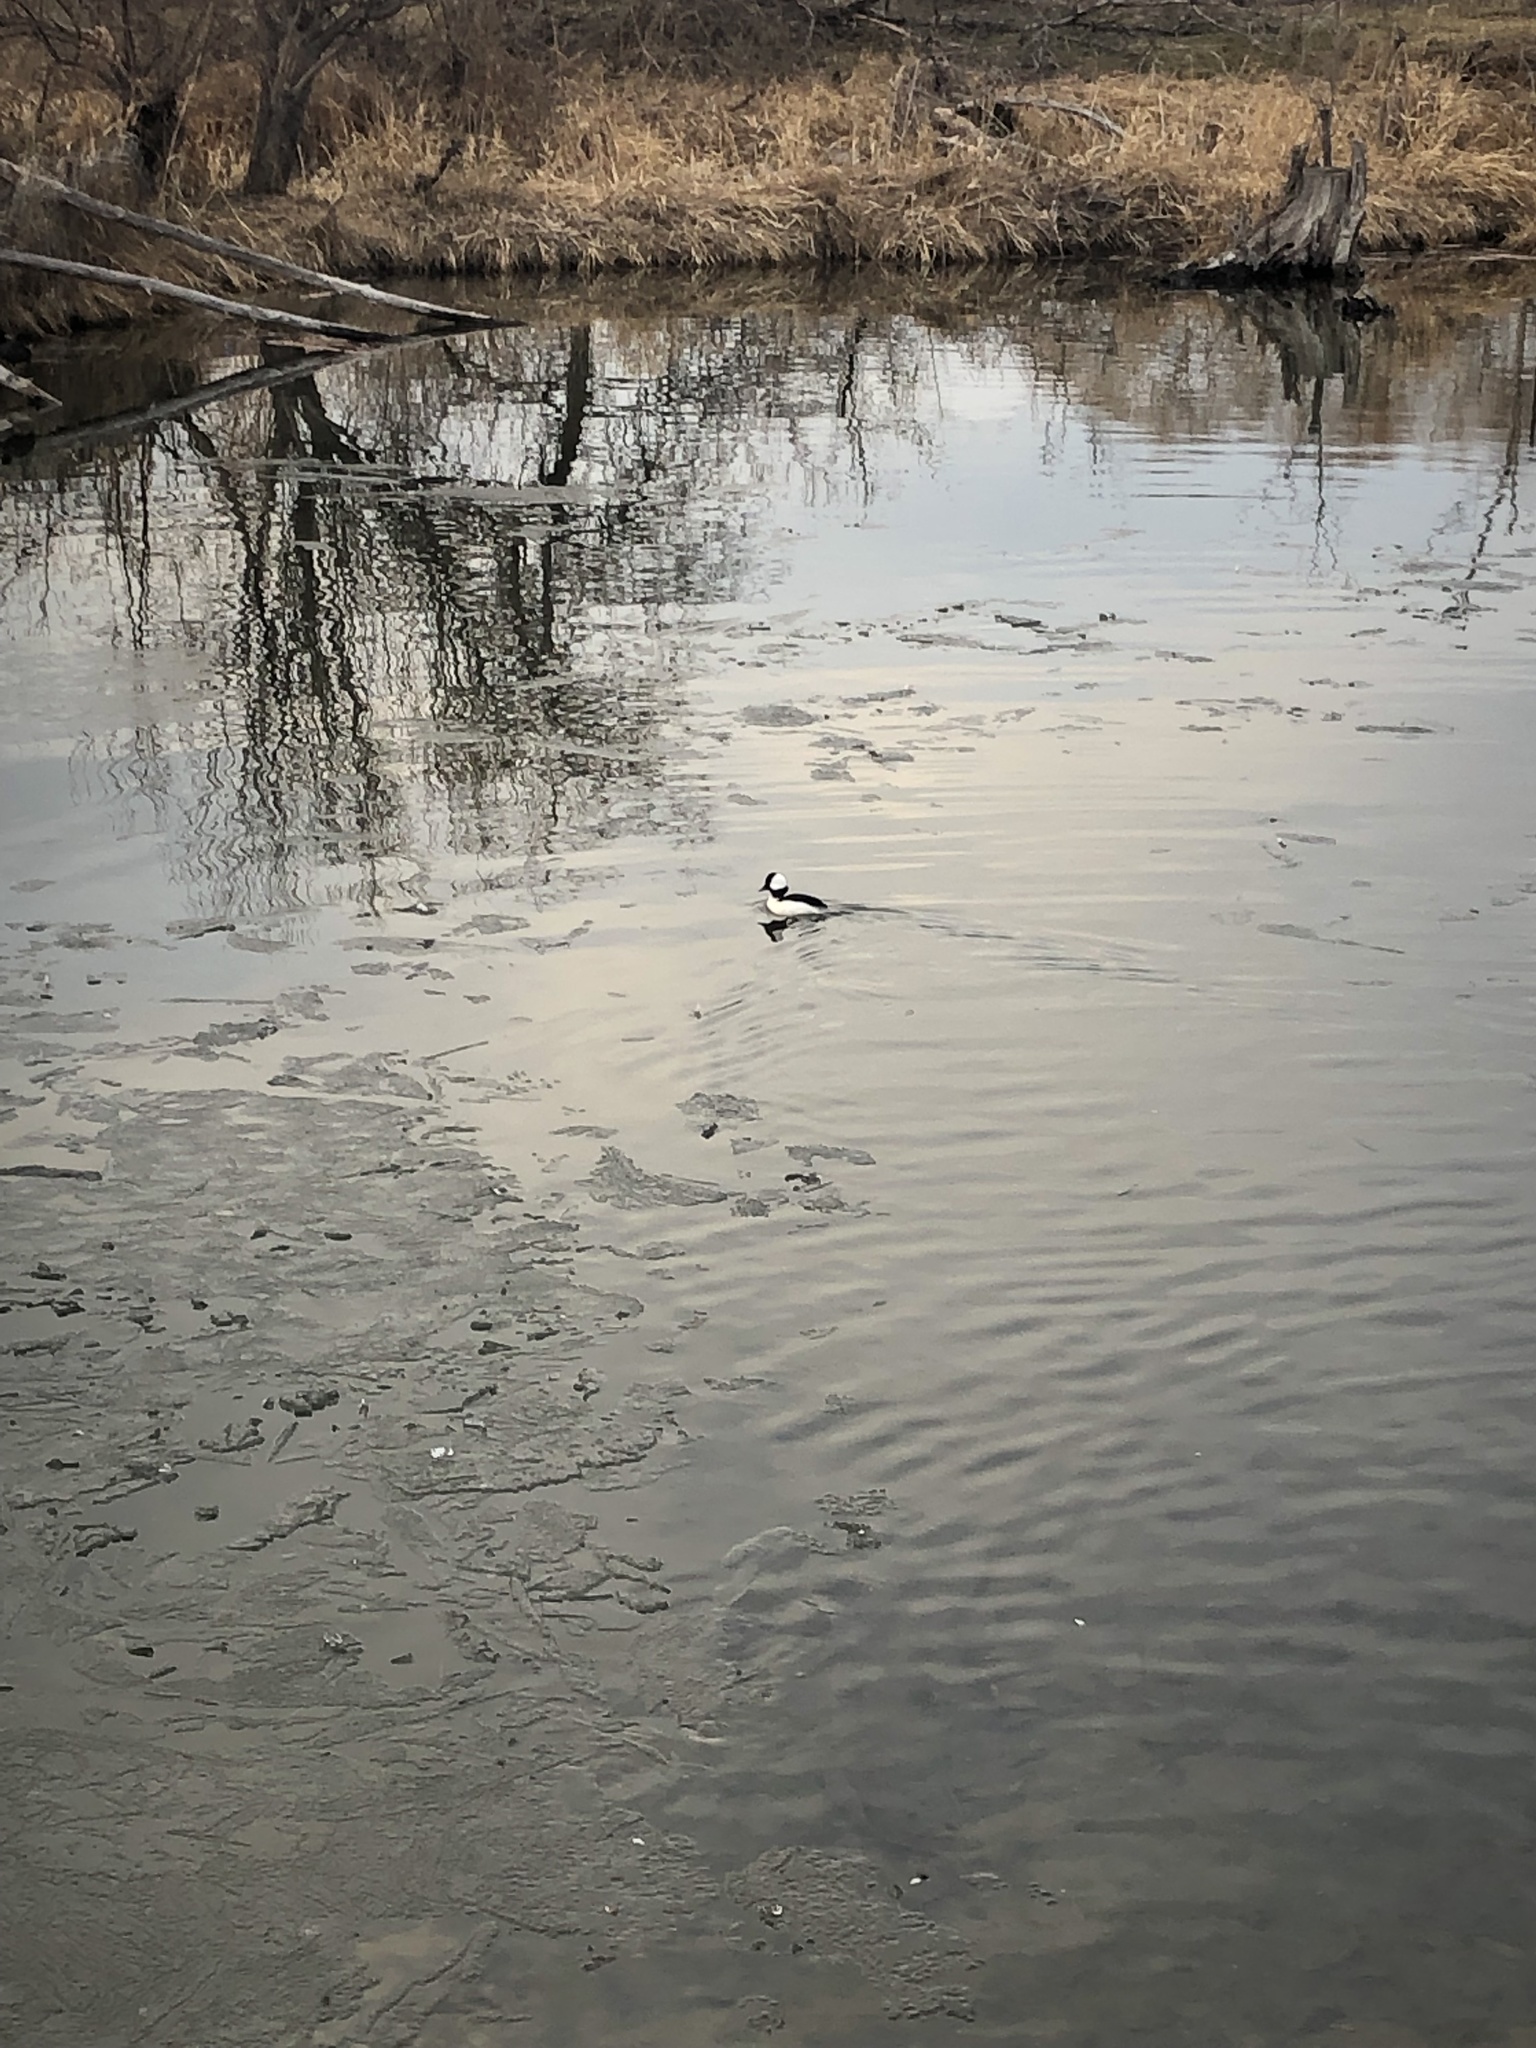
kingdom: Animalia
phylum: Chordata
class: Aves
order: Anseriformes
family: Anatidae
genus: Bucephala
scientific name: Bucephala albeola
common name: Bufflehead
